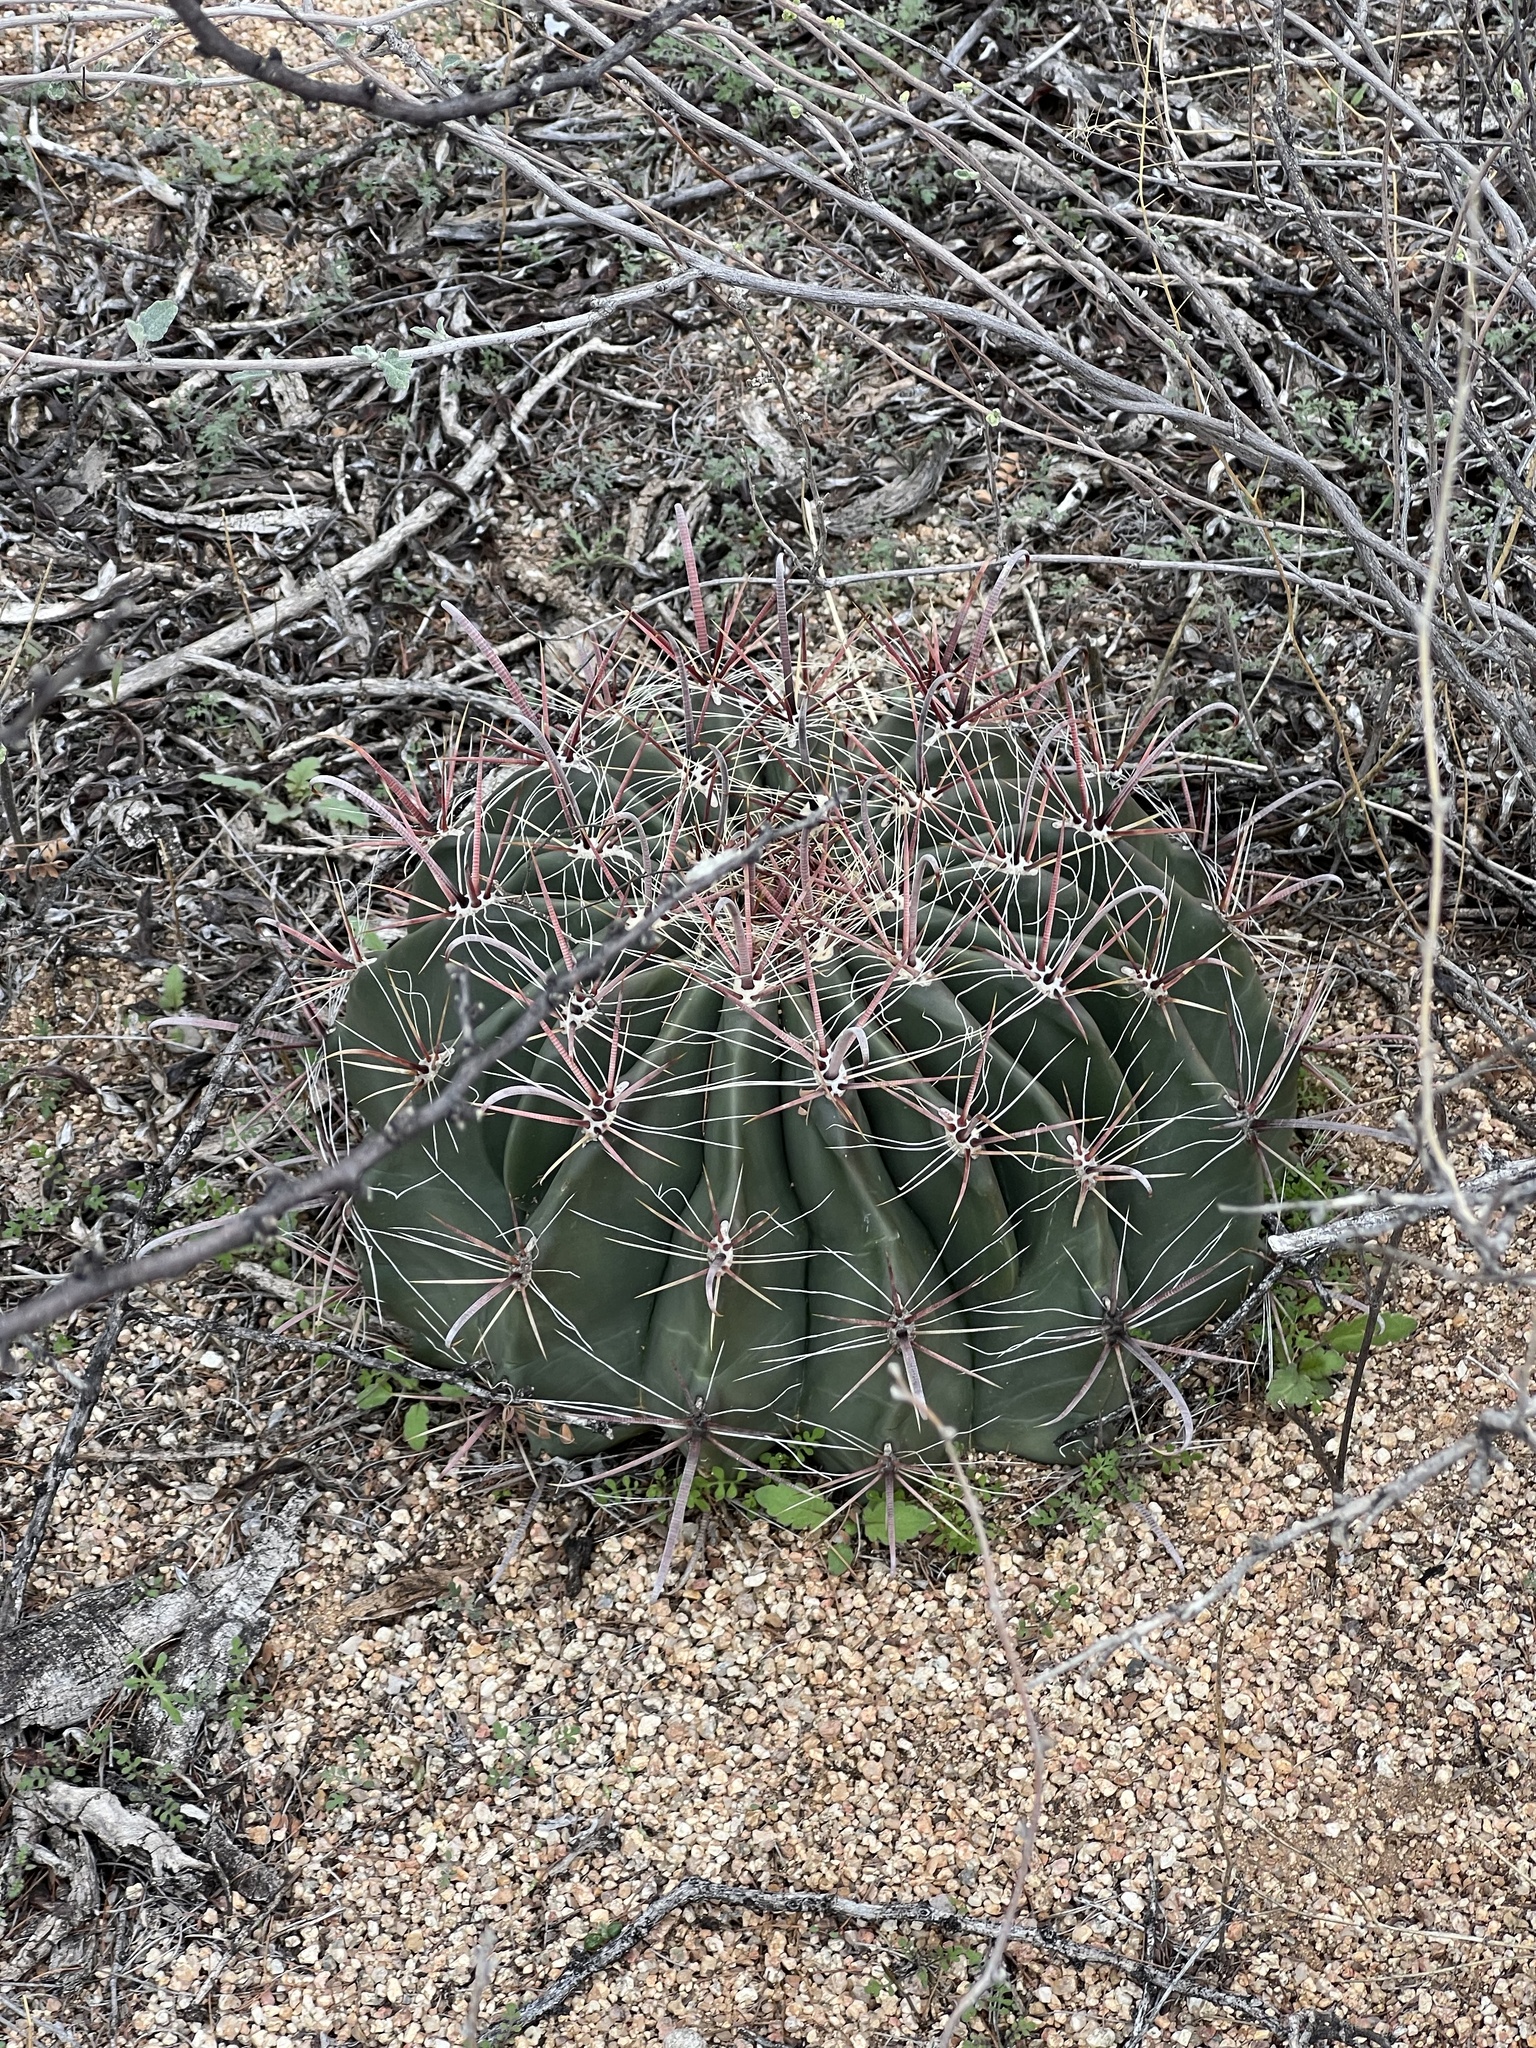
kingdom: Plantae
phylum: Tracheophyta
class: Magnoliopsida
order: Caryophyllales
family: Cactaceae
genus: Ferocactus
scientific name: Ferocactus wislizeni
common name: Candy barrel cactus
